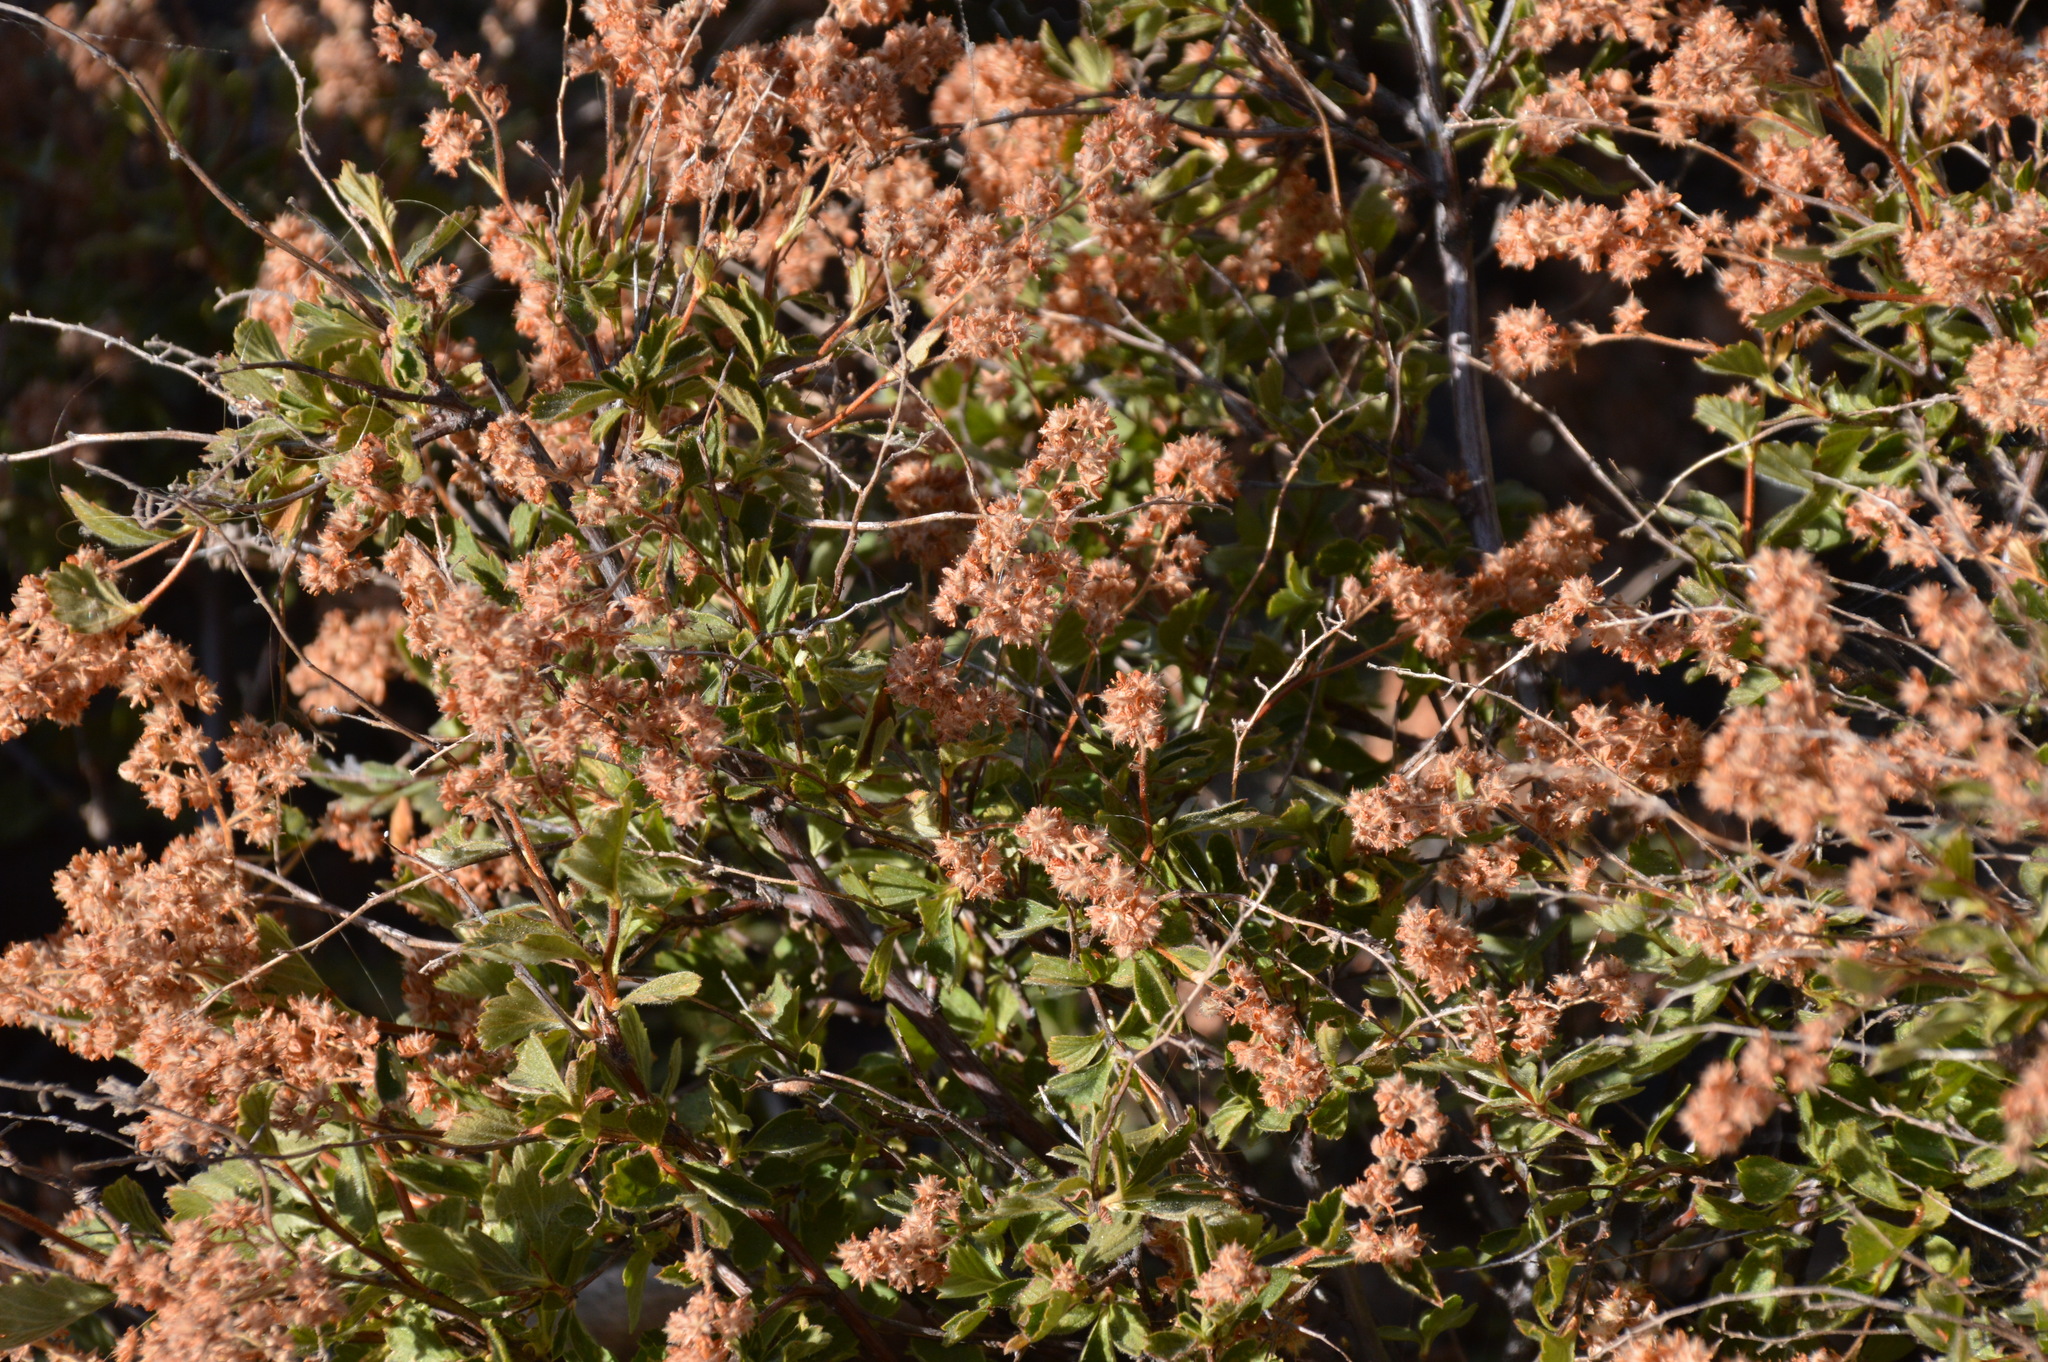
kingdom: Plantae
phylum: Tracheophyta
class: Magnoliopsida
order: Rosales
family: Rosaceae
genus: Holodiscus
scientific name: Holodiscus discolor
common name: Oceanspray
